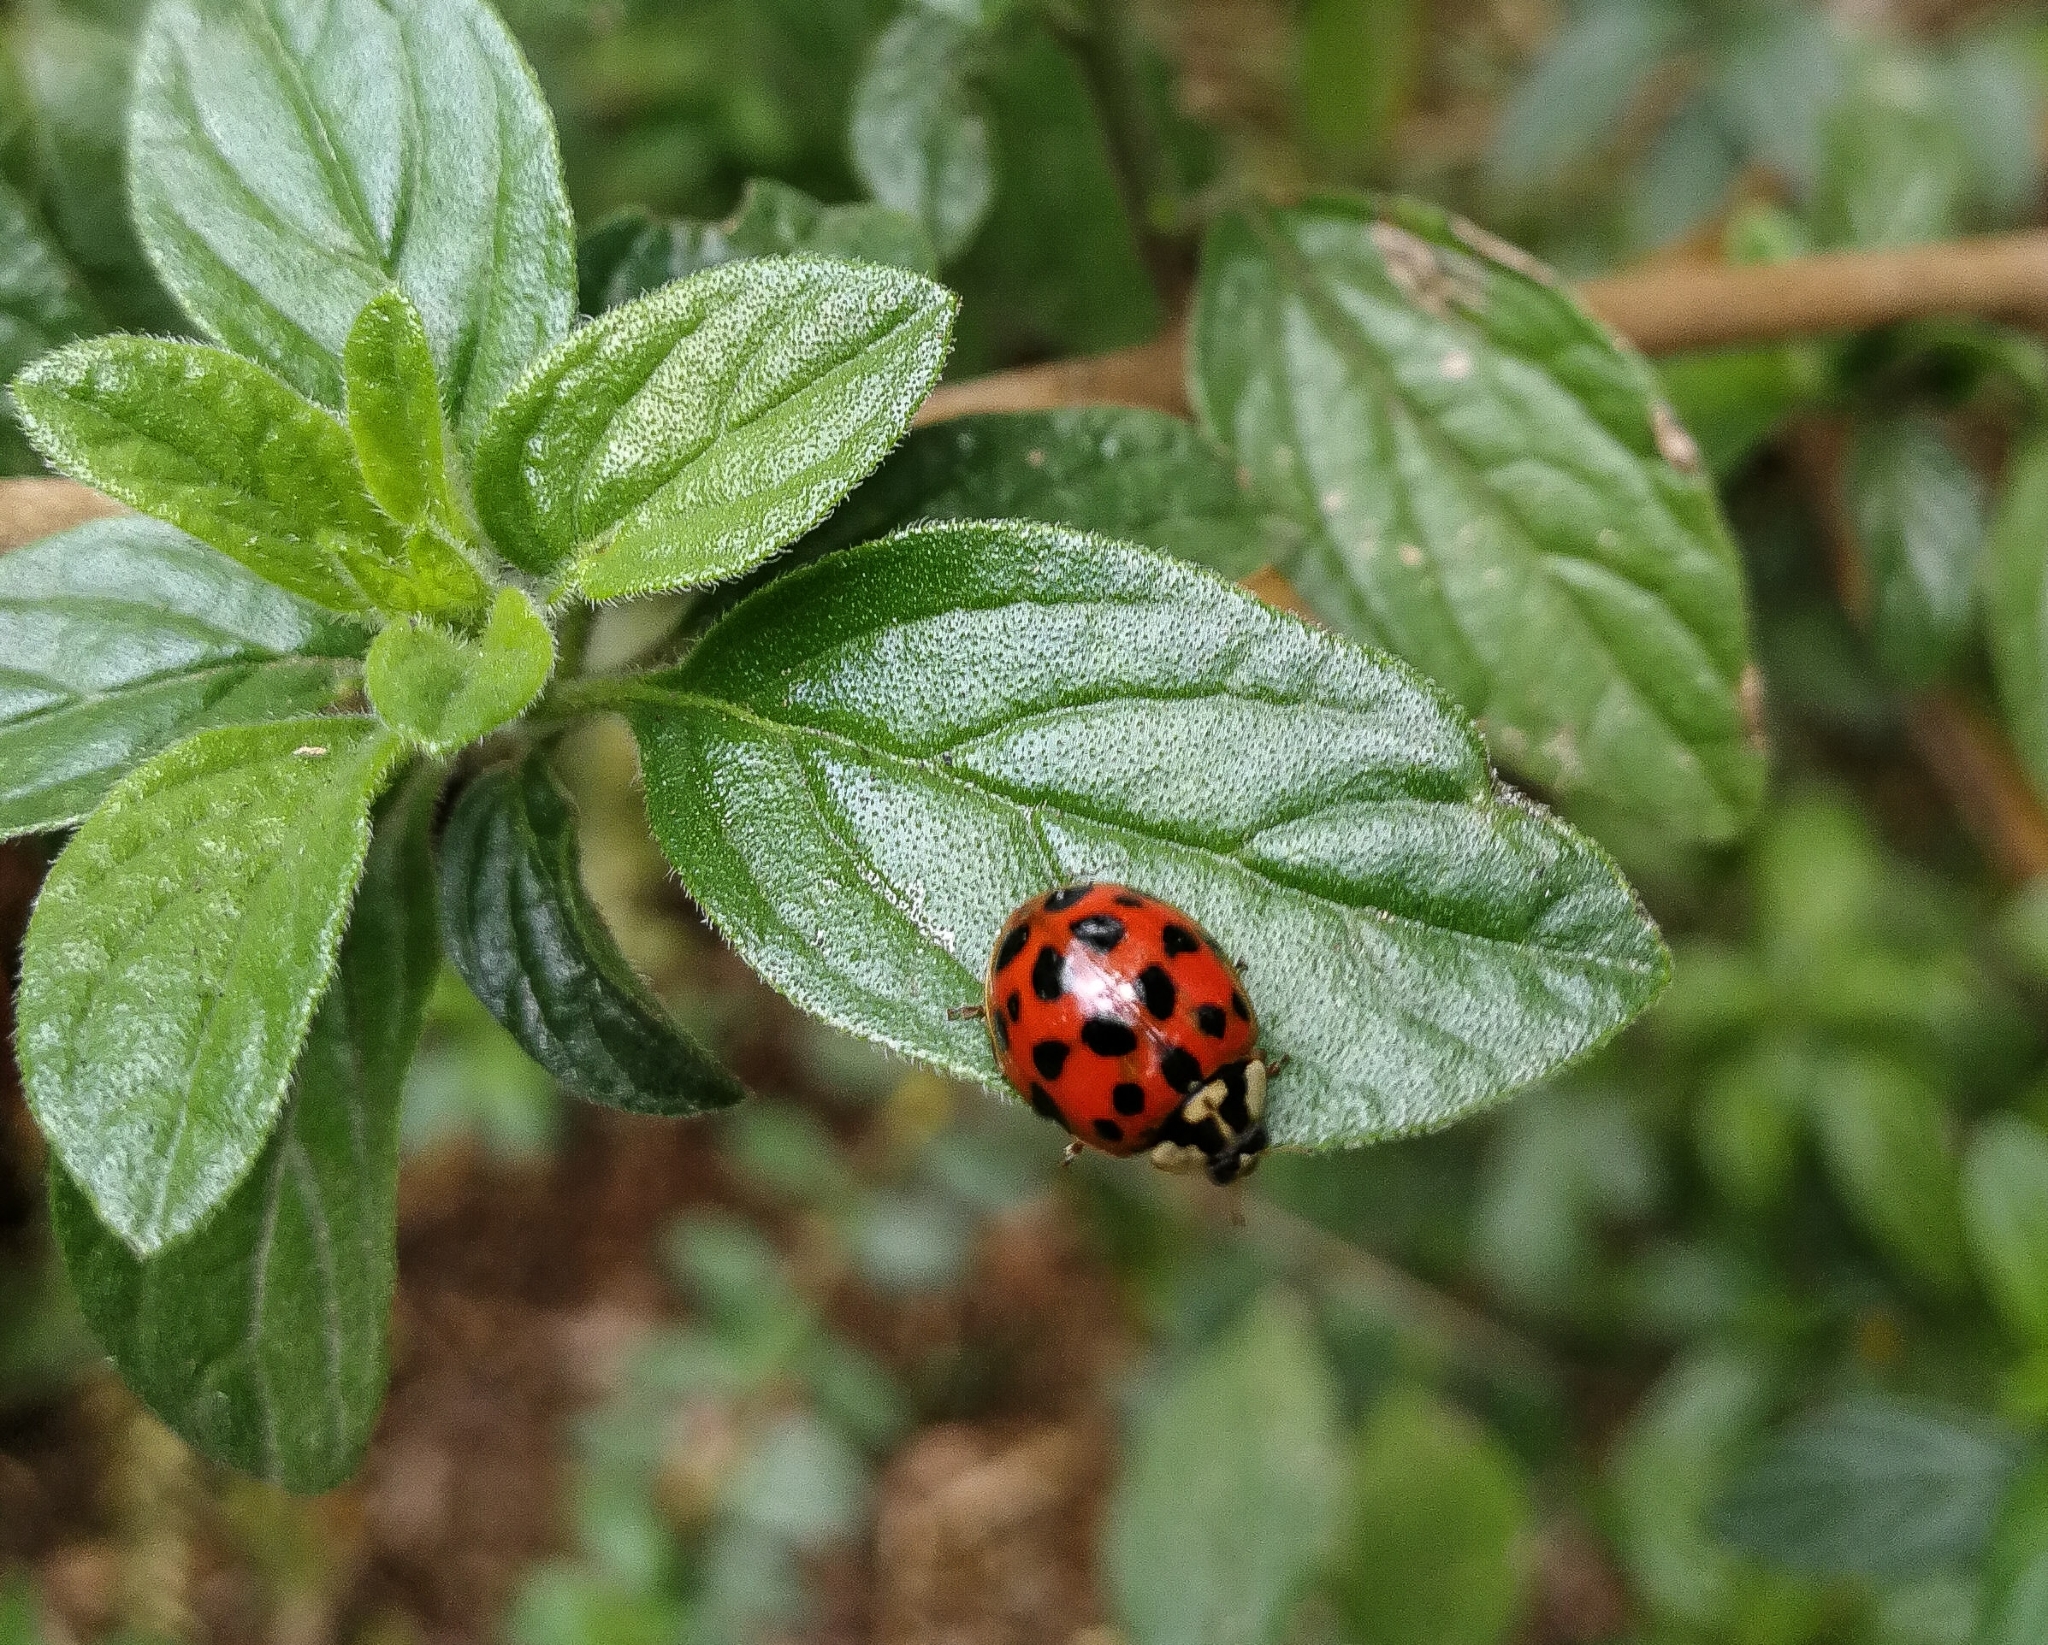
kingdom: Animalia
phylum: Arthropoda
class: Insecta
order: Coleoptera
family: Coccinellidae
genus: Harmonia
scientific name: Harmonia axyridis
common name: Harlequin ladybird
